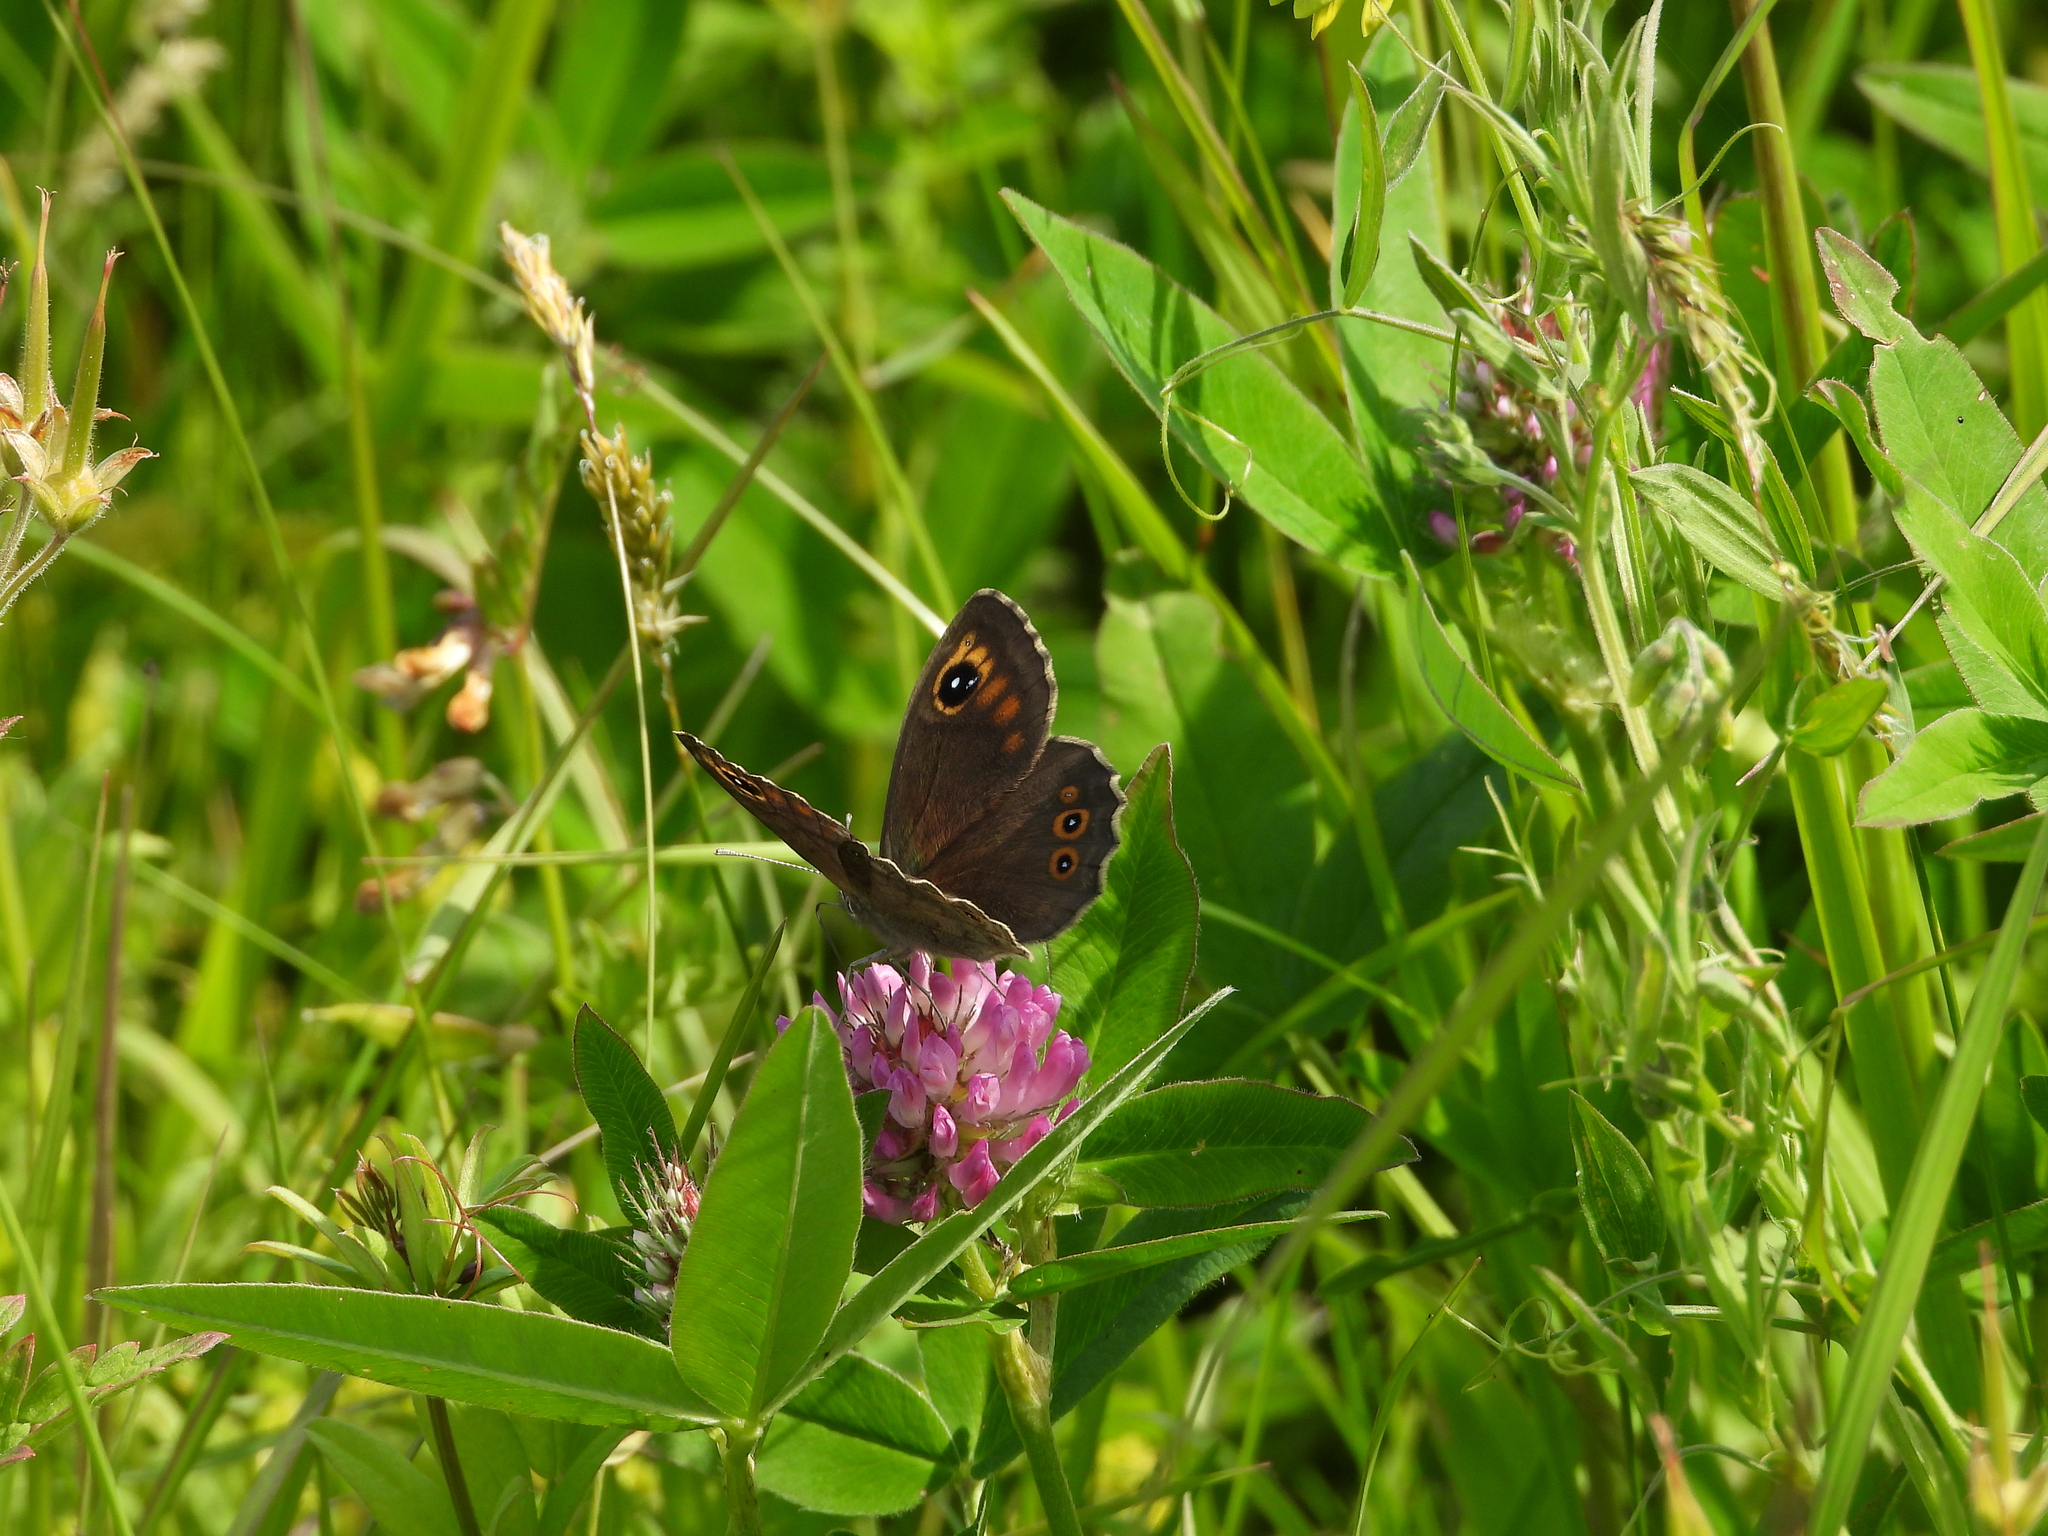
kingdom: Animalia
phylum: Arthropoda
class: Insecta
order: Lepidoptera
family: Nymphalidae
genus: Pararge
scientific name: Pararge Lasiommata maera
